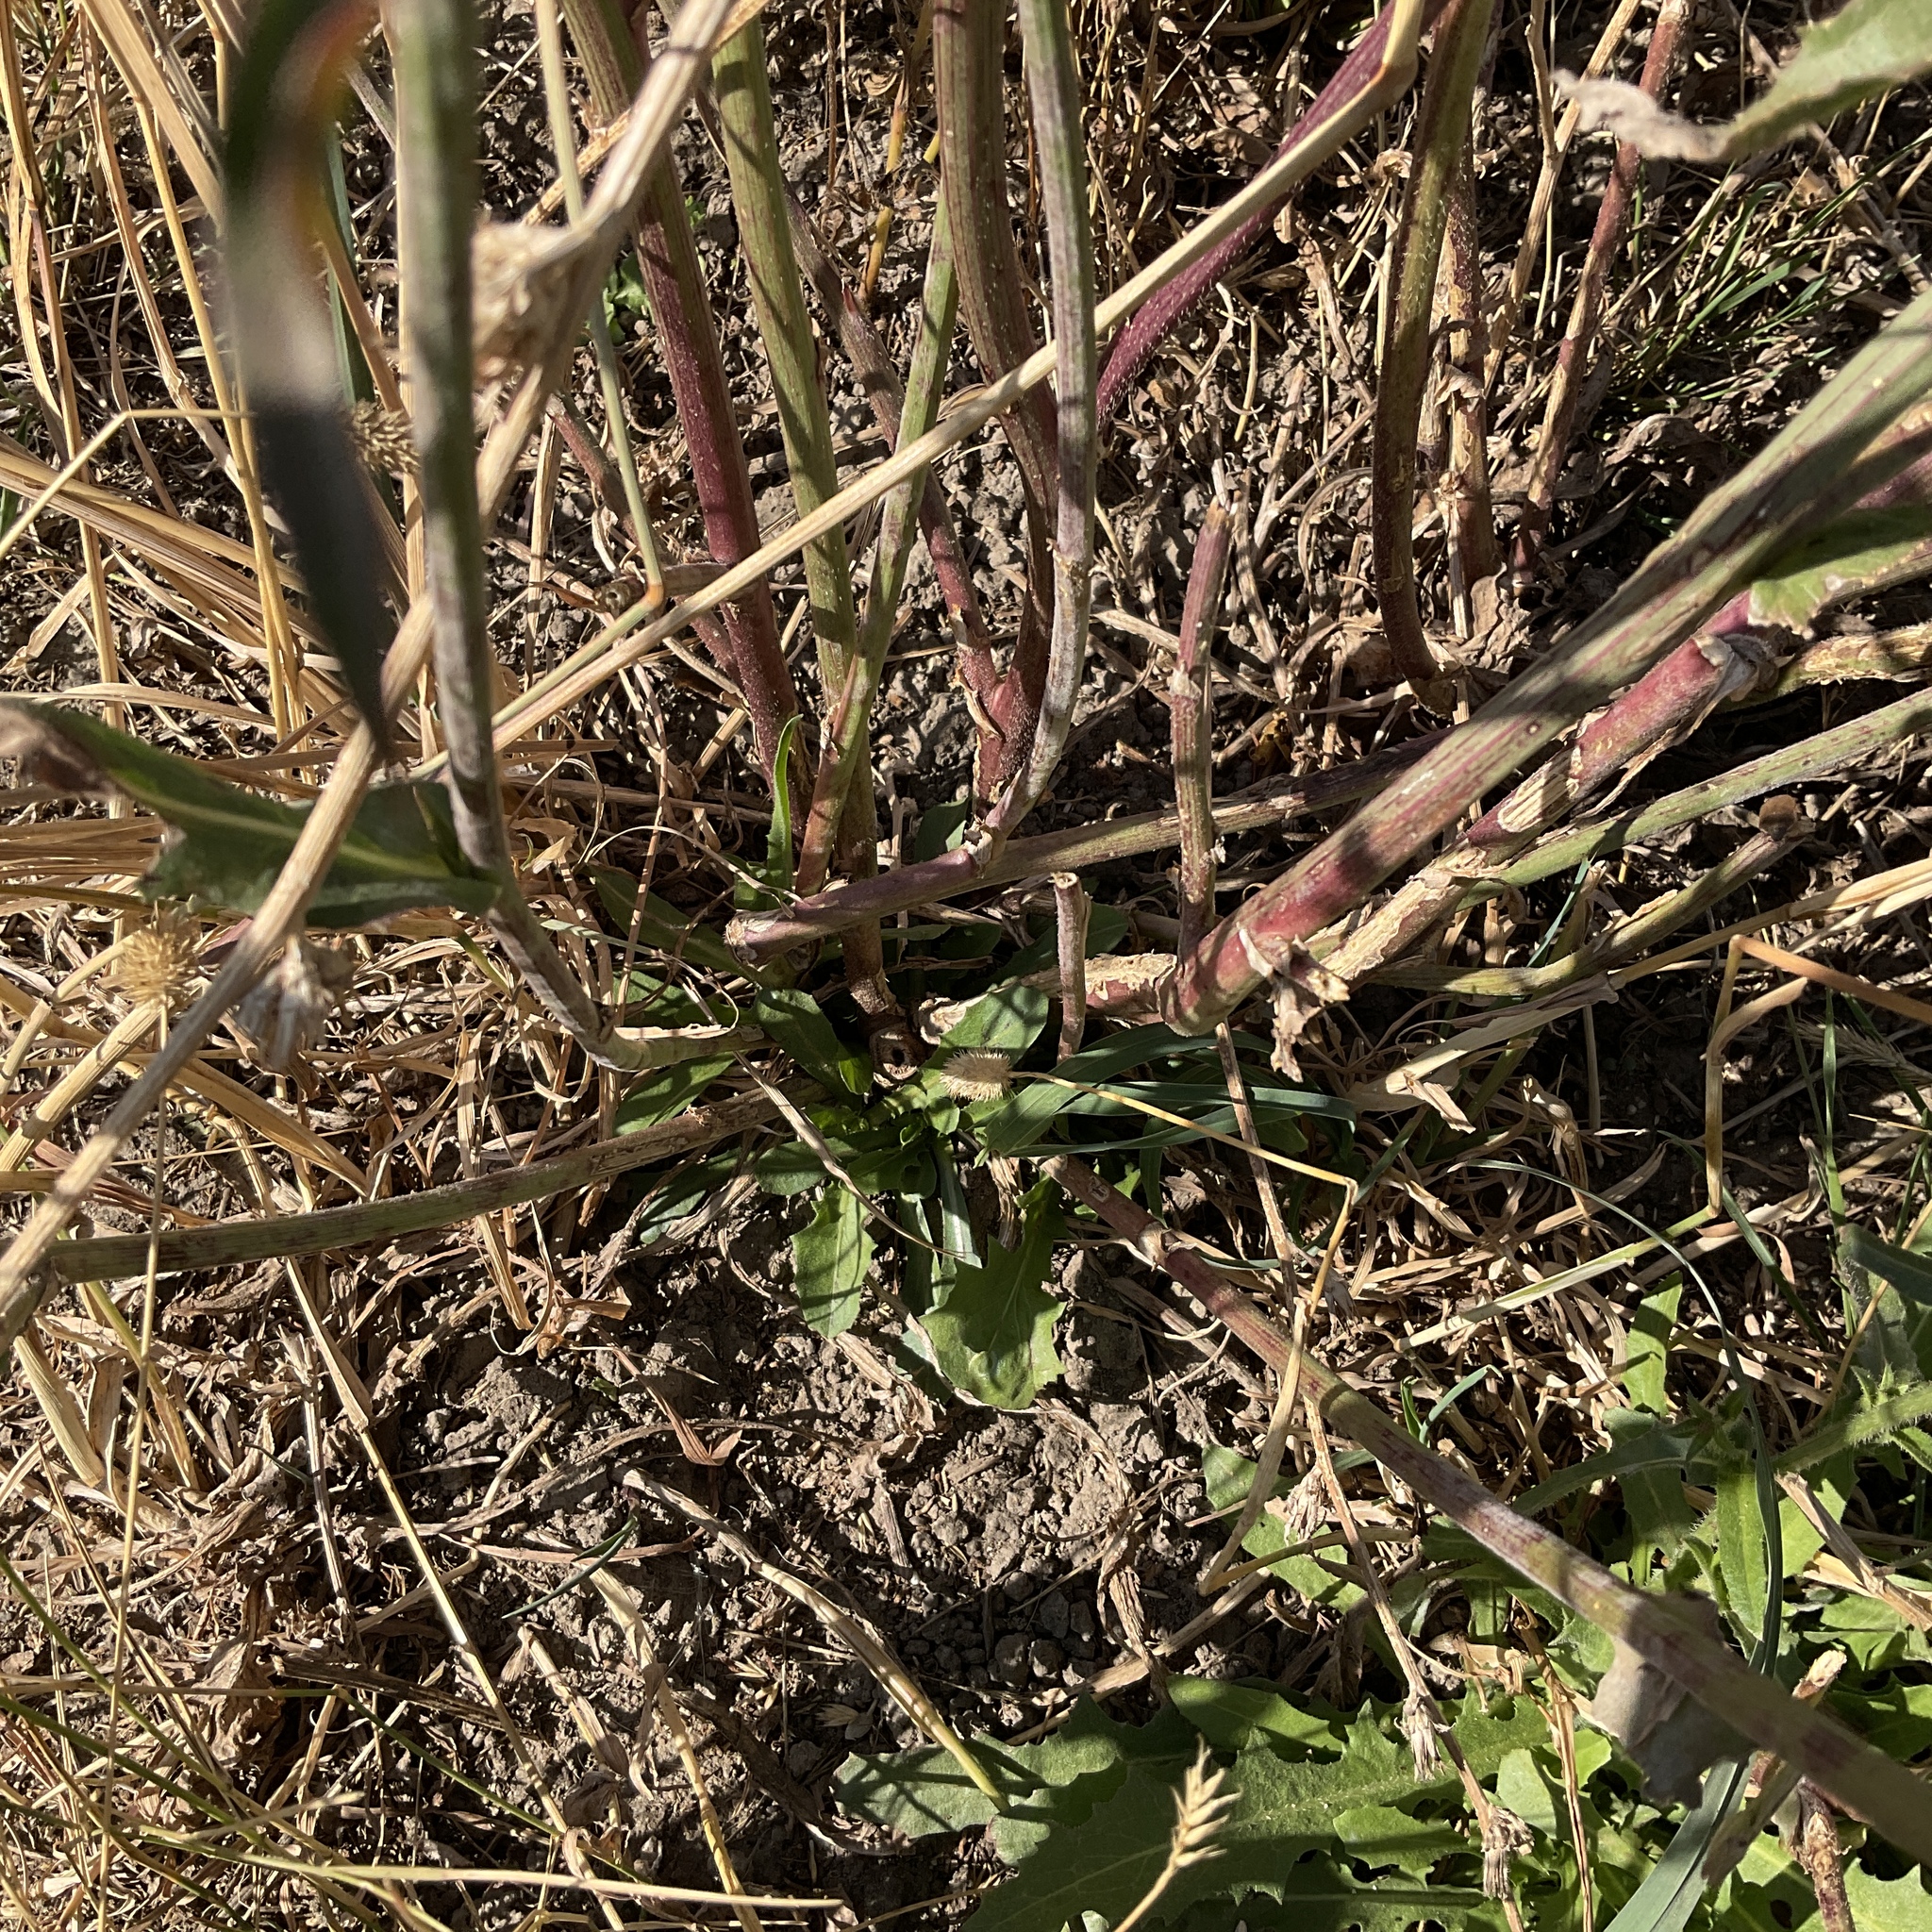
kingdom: Plantae
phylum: Tracheophyta
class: Magnoliopsida
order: Asterales
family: Asteraceae
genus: Cichorium
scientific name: Cichorium intybus
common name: Chicory
